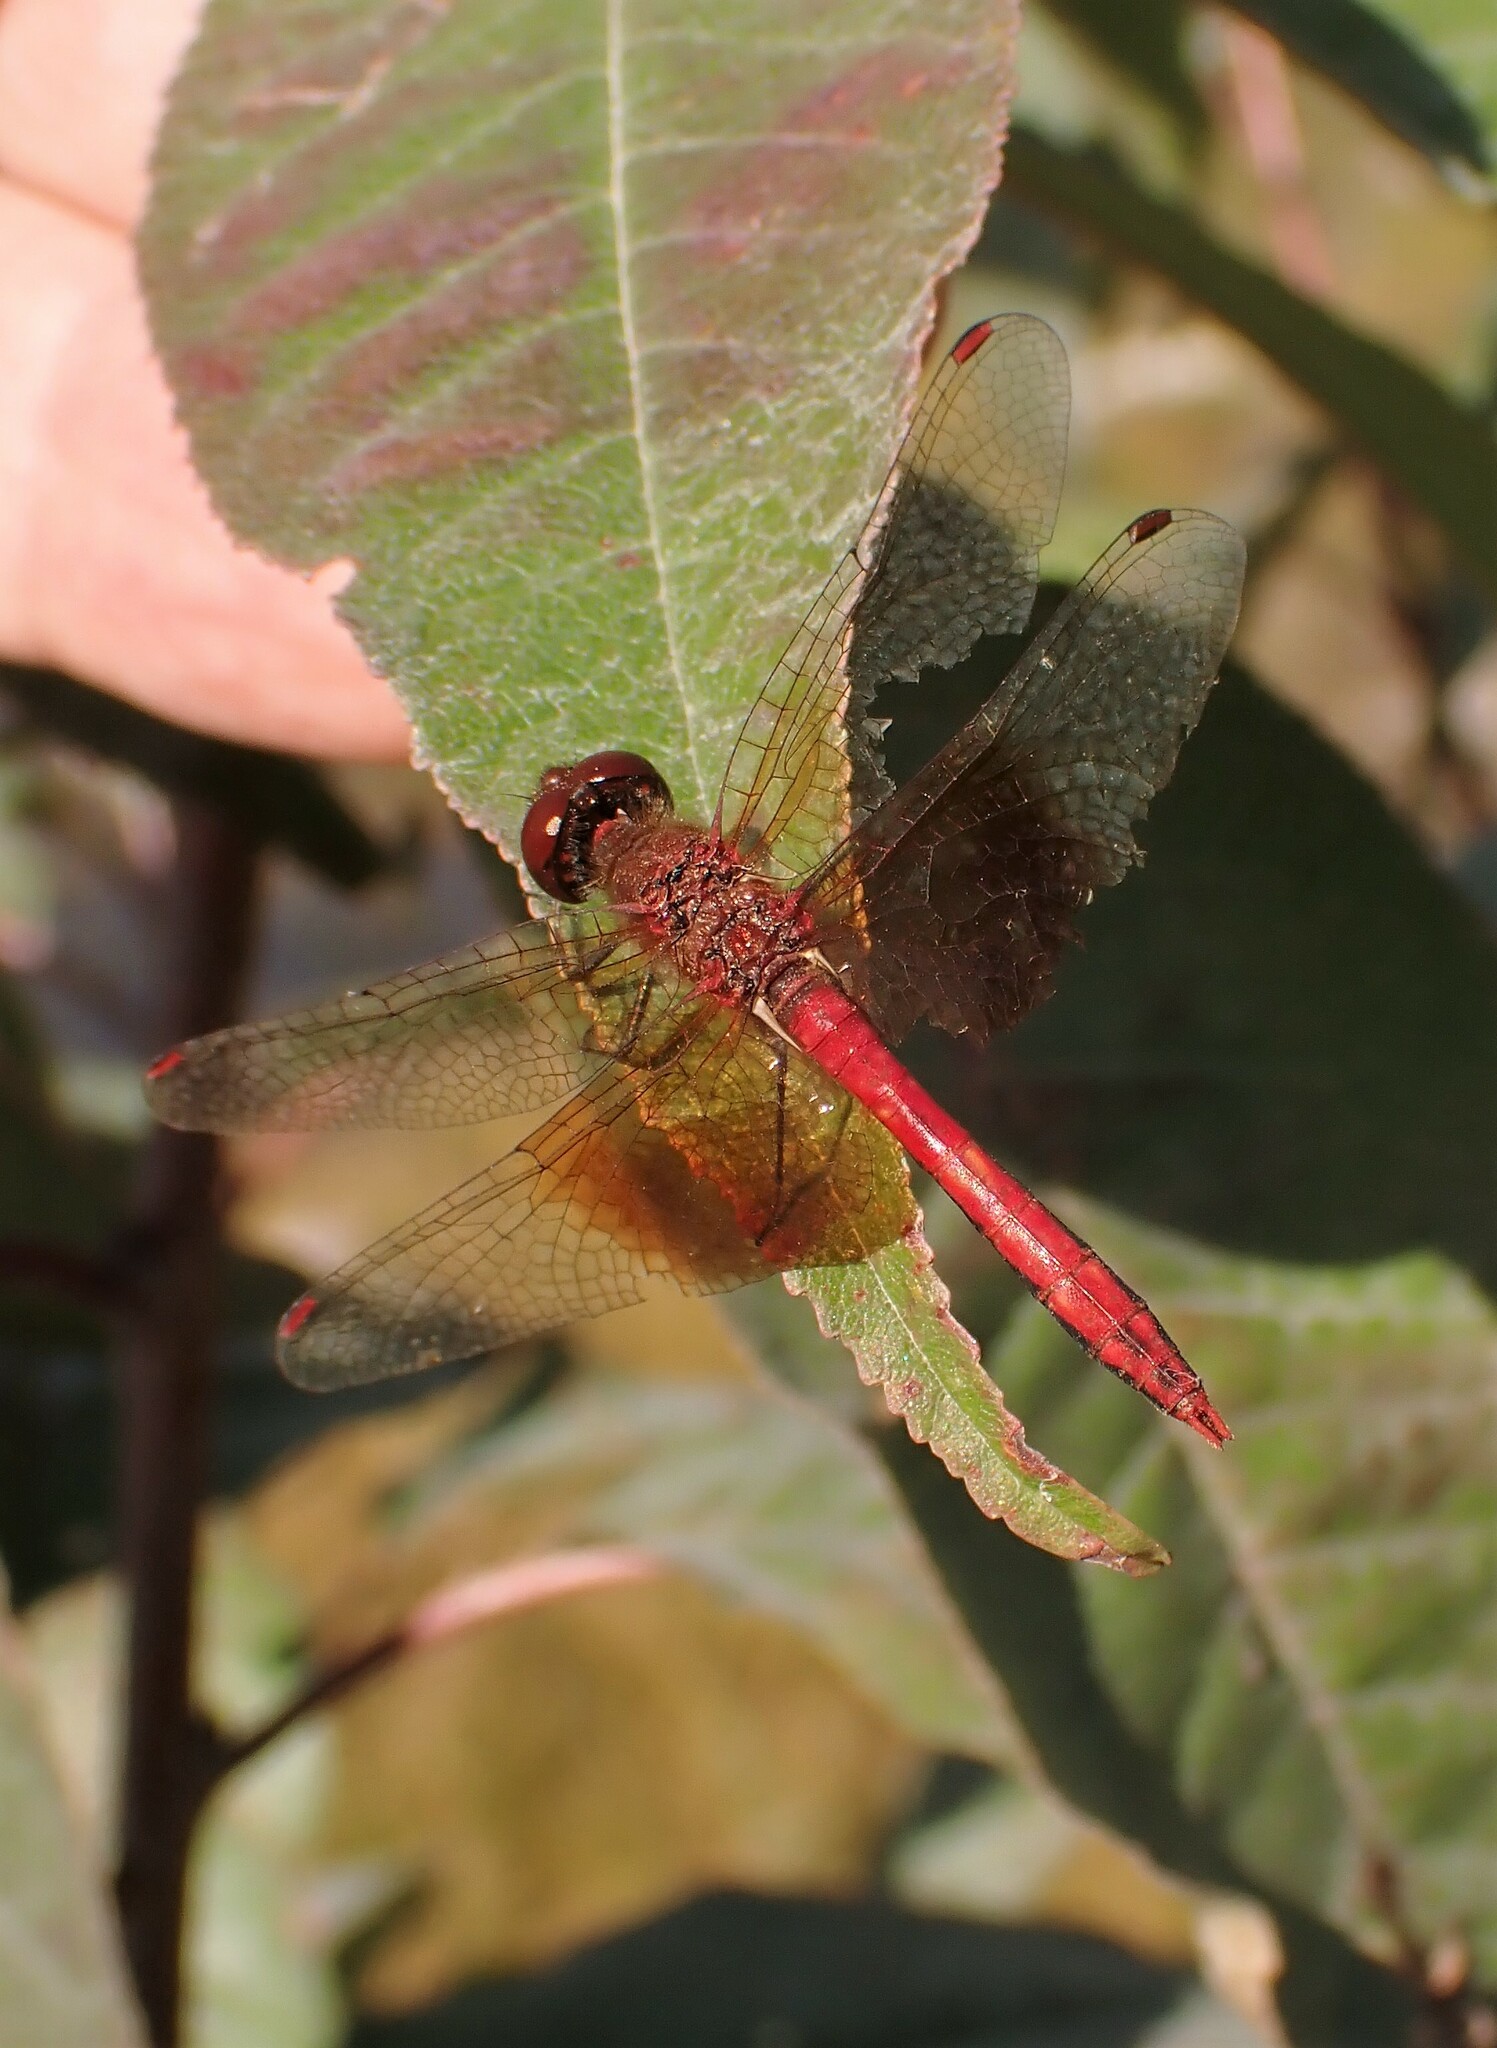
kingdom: Animalia
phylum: Arthropoda
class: Insecta
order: Odonata
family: Libellulidae
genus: Sympetrum
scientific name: Sympetrum semicinctum
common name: Band-winged meadowhawk
